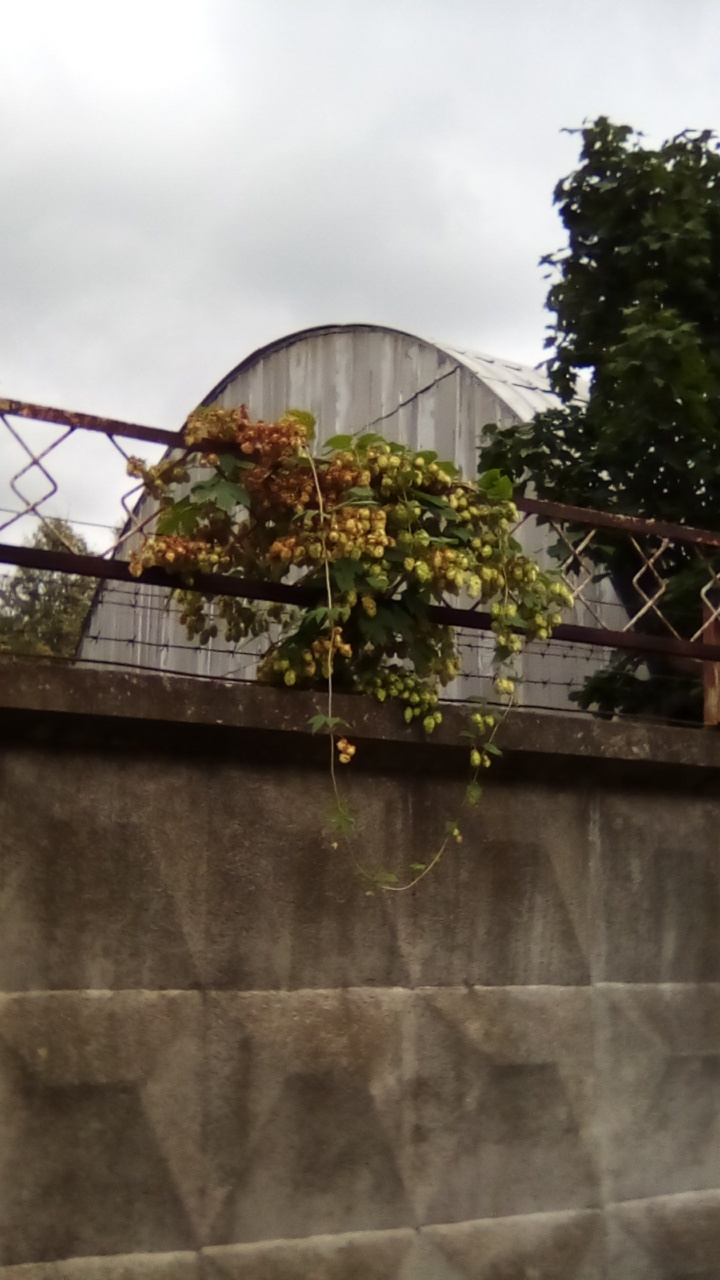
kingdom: Plantae
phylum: Tracheophyta
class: Magnoliopsida
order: Rosales
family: Cannabaceae
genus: Humulus
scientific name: Humulus lupulus
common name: Hop
